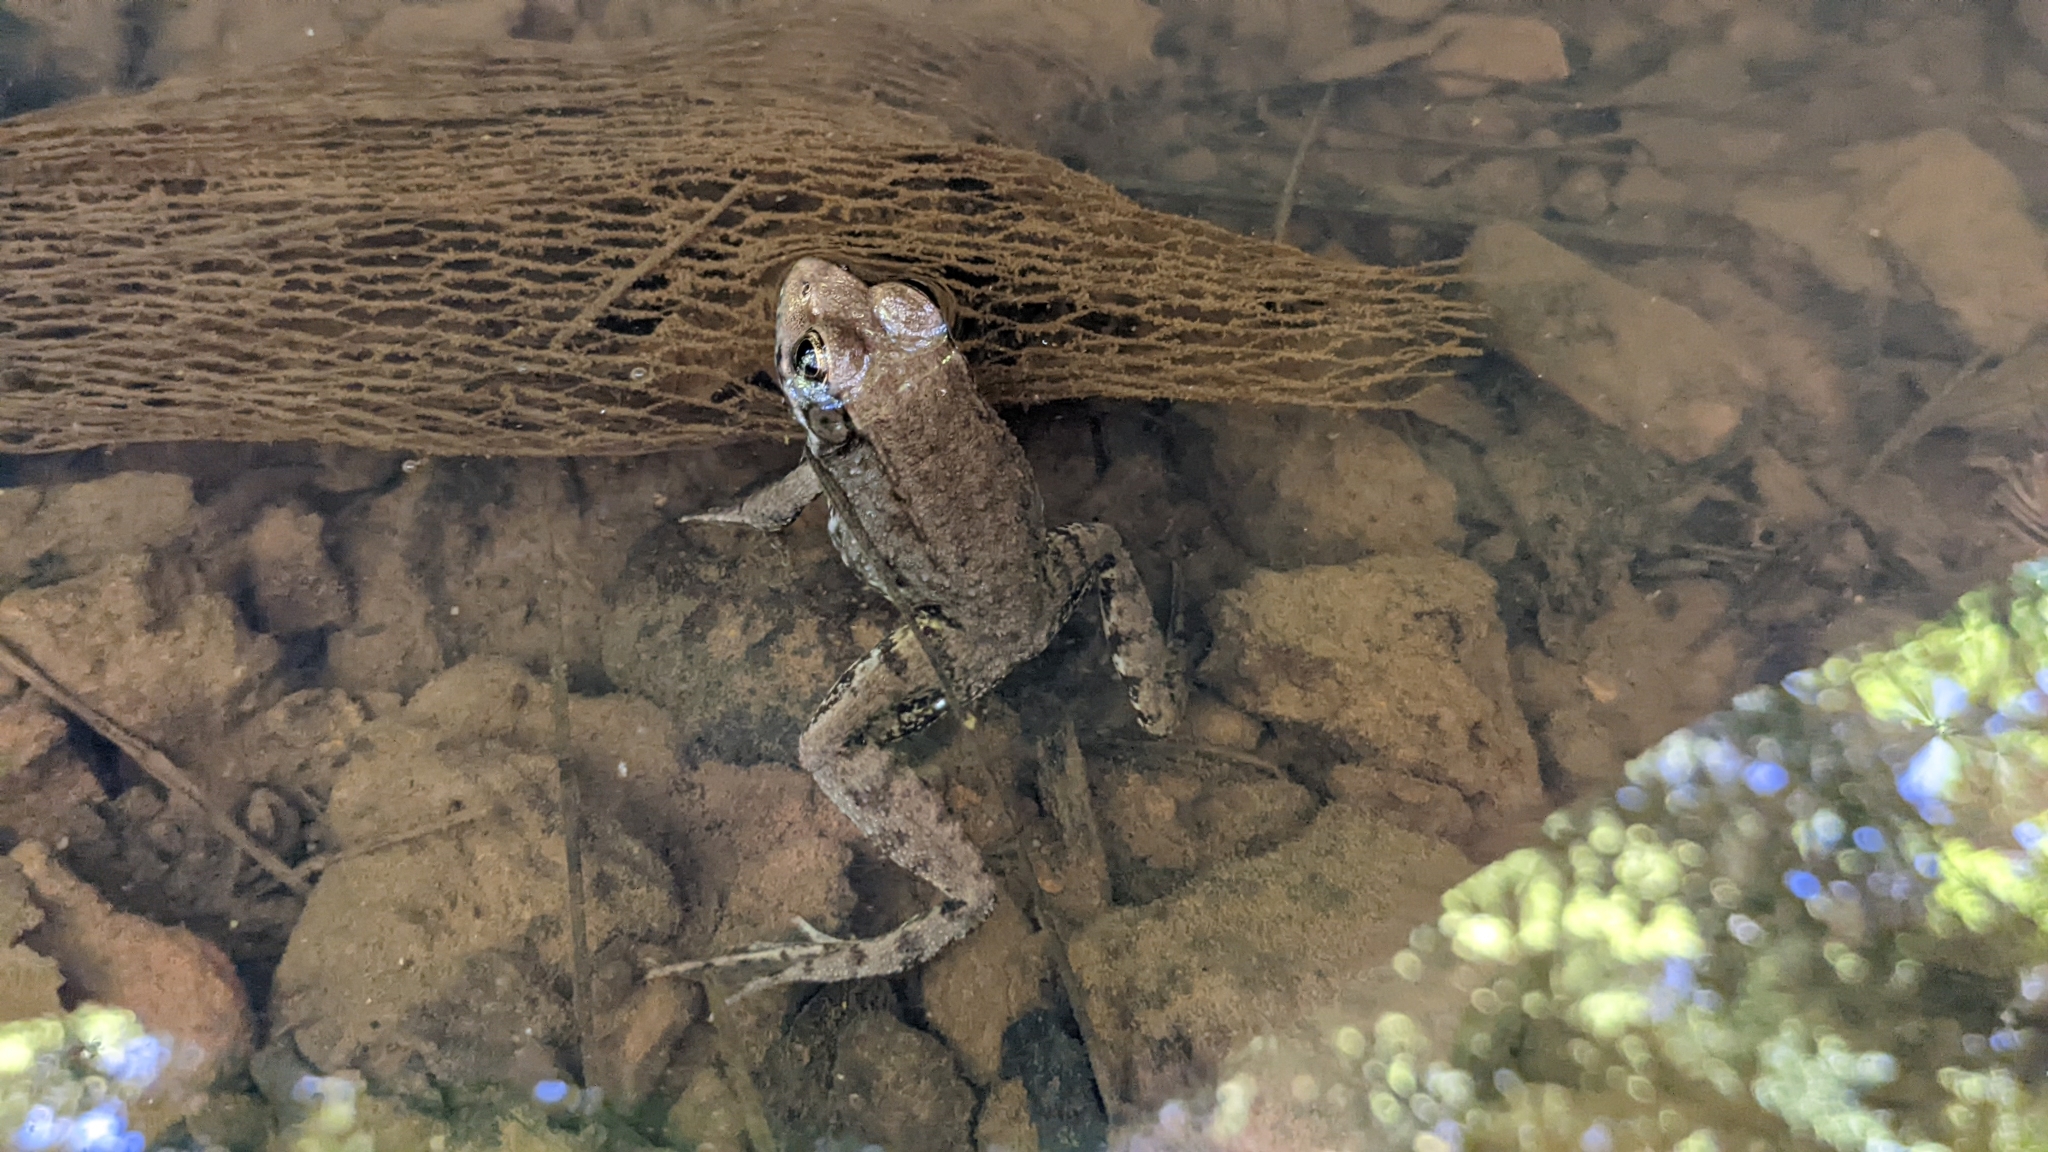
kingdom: Animalia
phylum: Chordata
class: Amphibia
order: Anura
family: Ranidae
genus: Lithobates
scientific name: Lithobates clamitans
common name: Green frog
